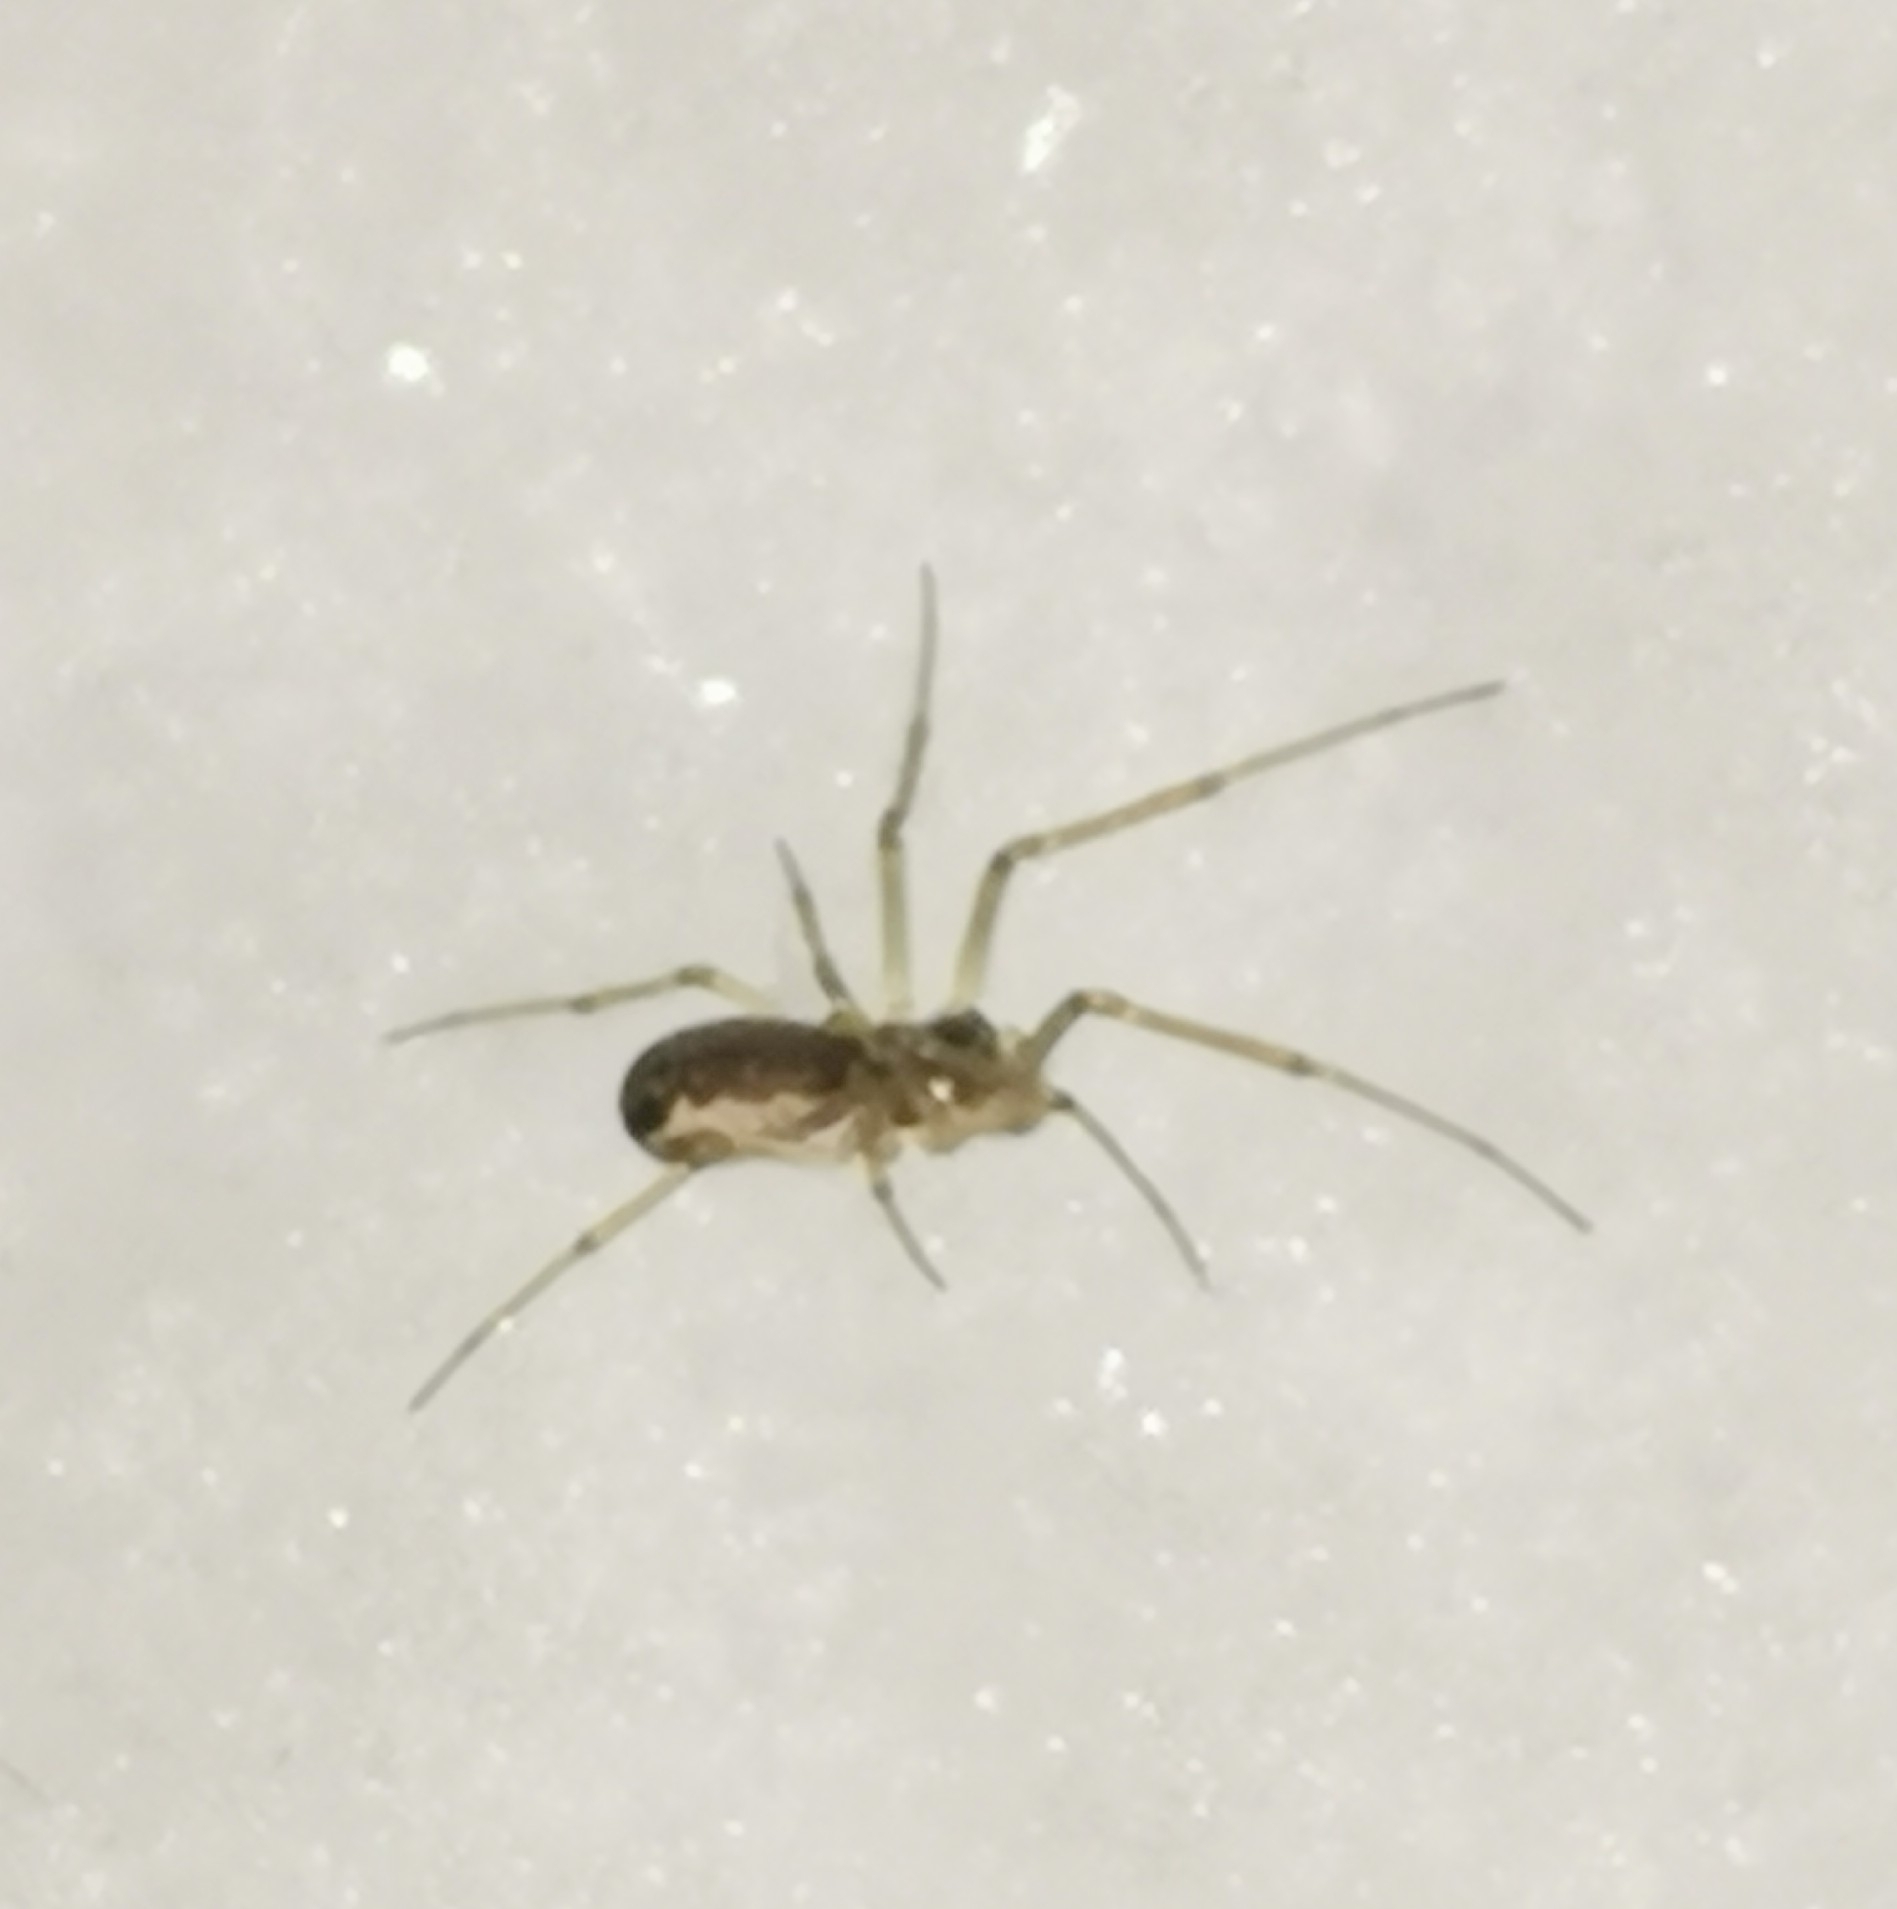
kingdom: Animalia
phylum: Arthropoda
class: Arachnida
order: Araneae
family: Linyphiidae
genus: Neriene
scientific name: Neriene peltata
